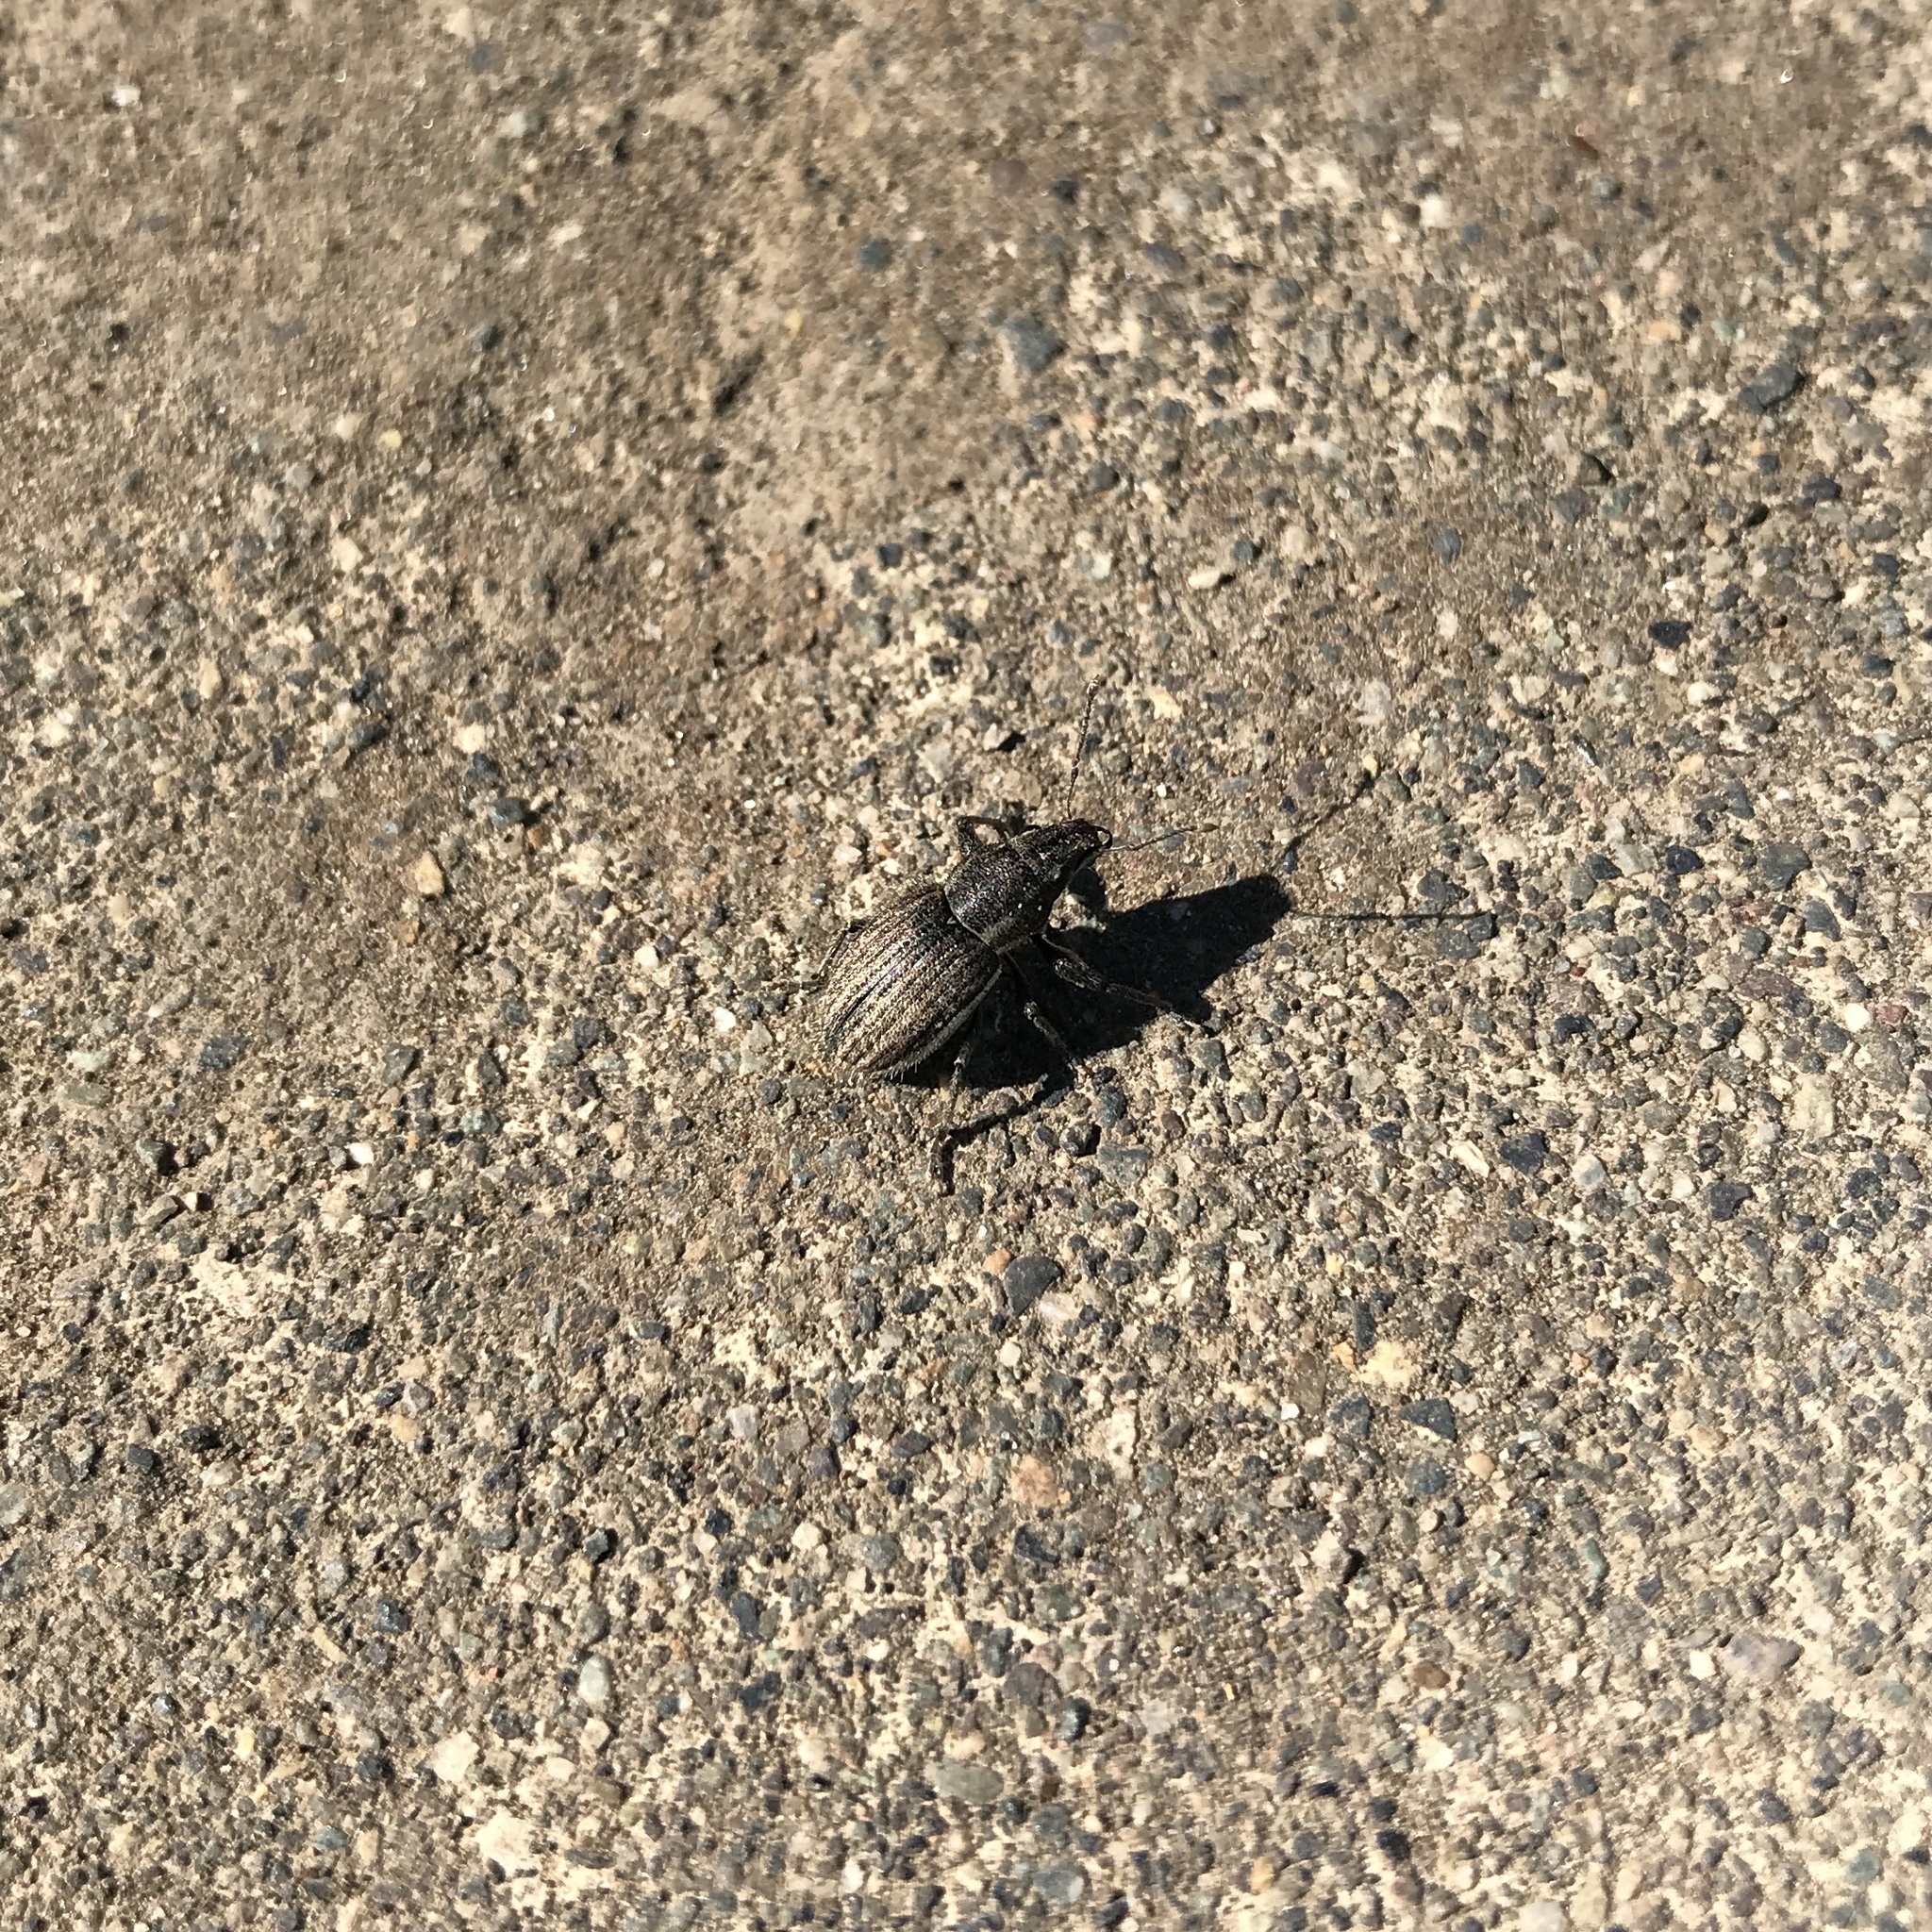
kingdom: Animalia
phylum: Arthropoda
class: Insecta
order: Coleoptera
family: Curculionidae
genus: Naupactus
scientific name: Naupactus leucoloma
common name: Whitefringed beetle
